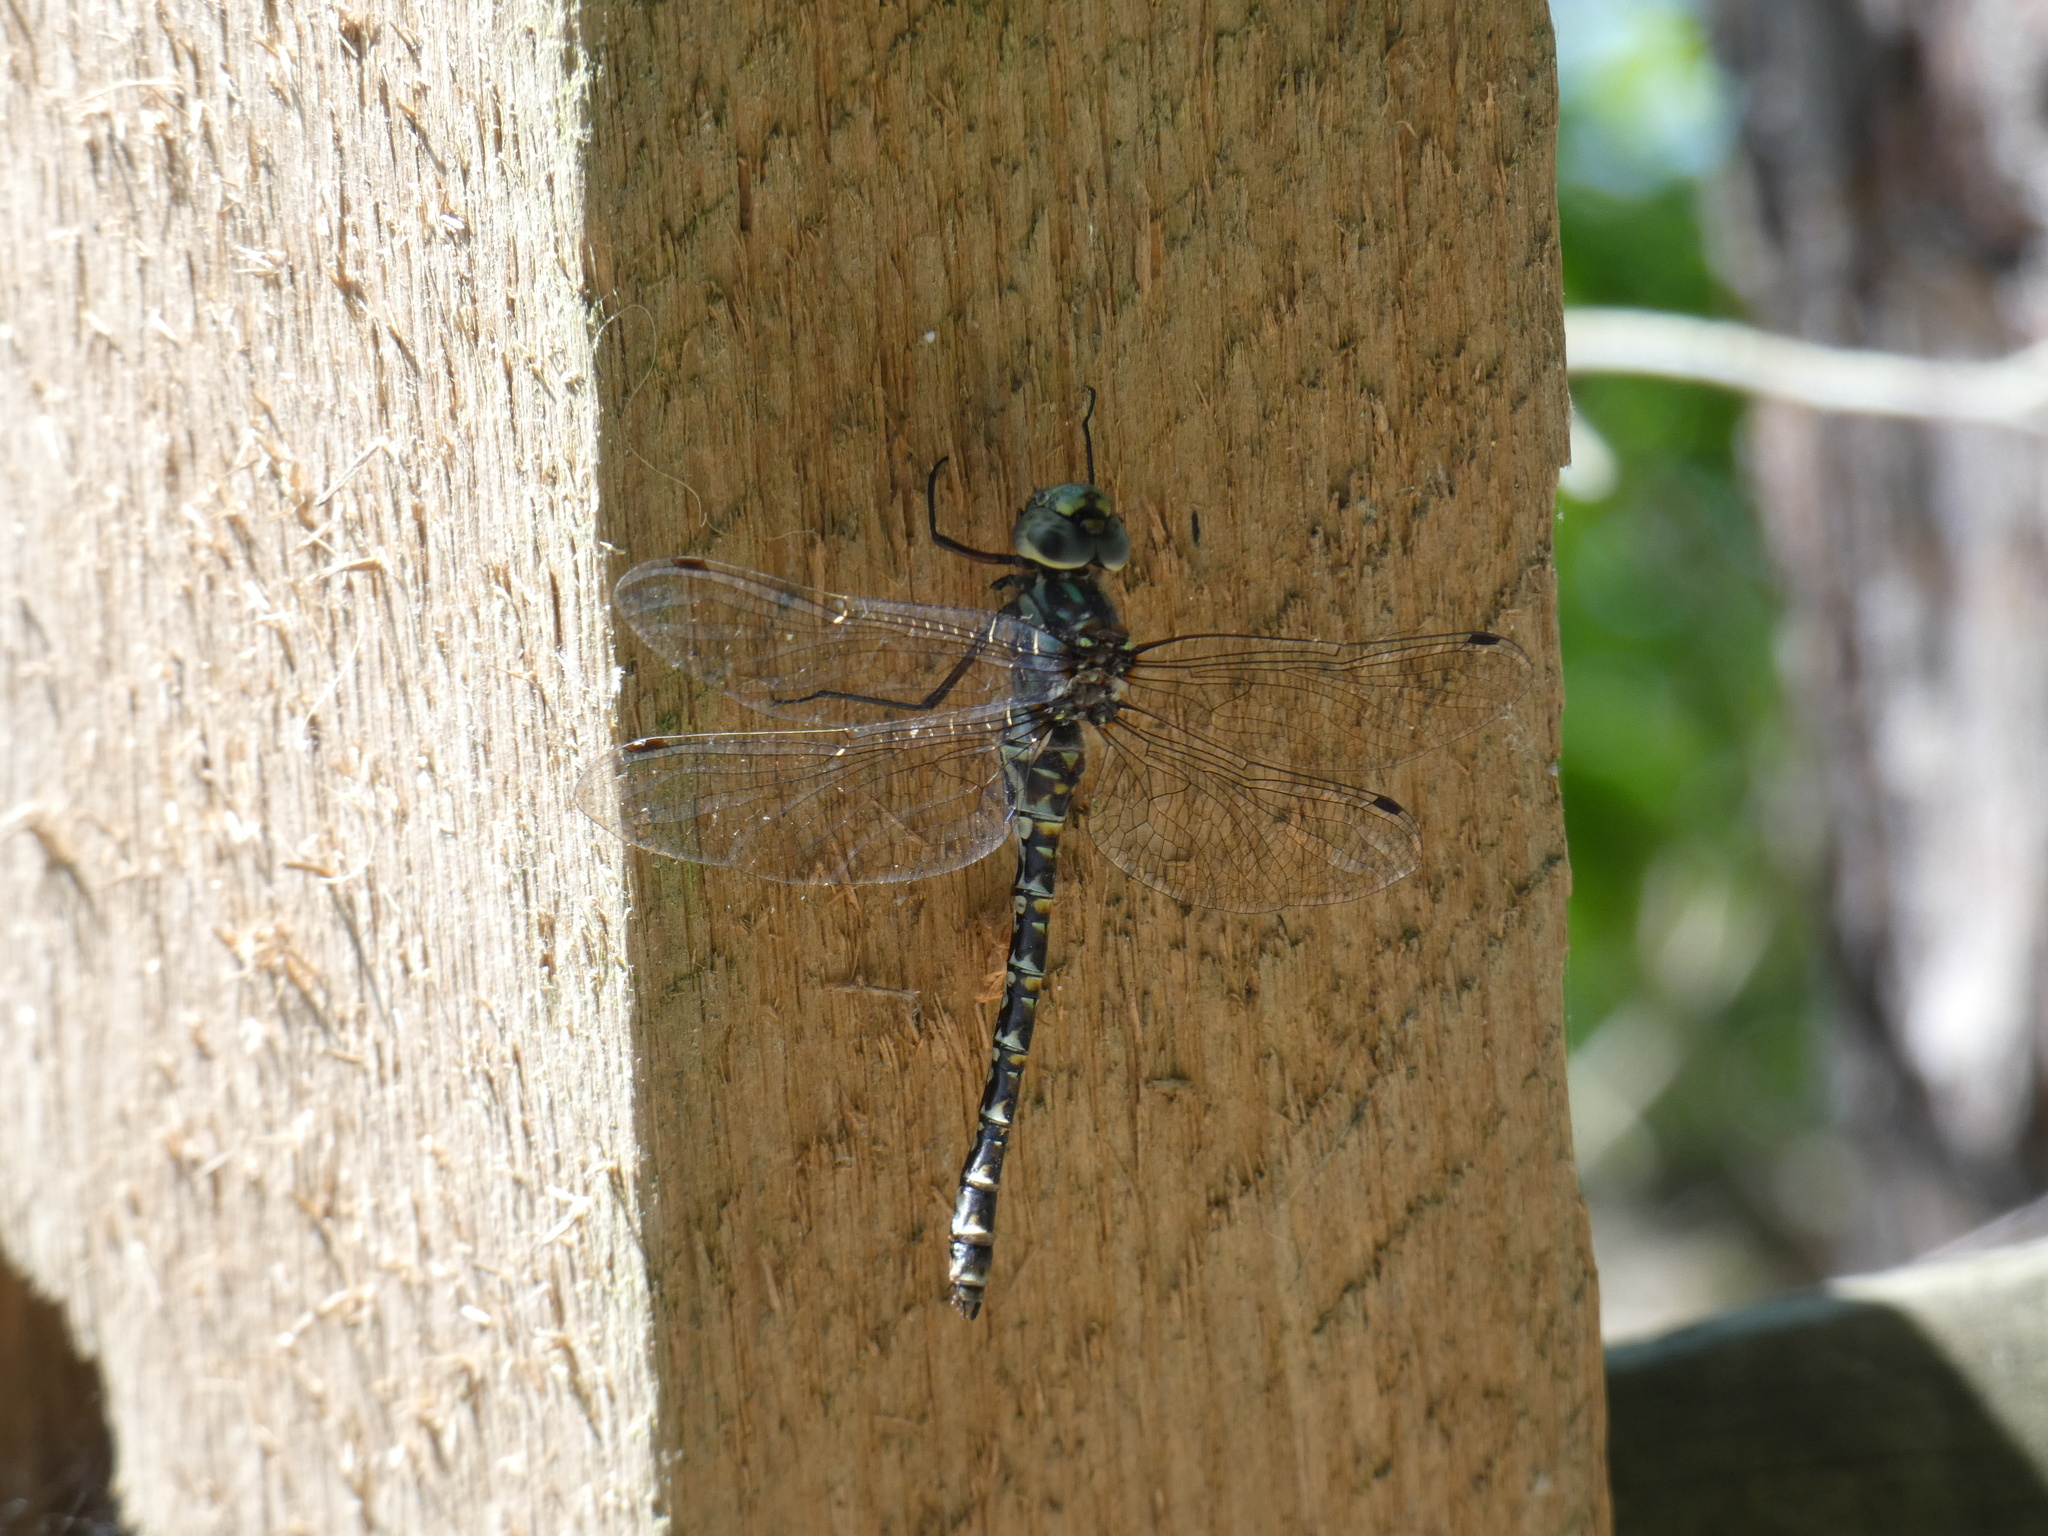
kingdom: Animalia
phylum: Arthropoda
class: Insecta
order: Odonata
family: Aeshnidae
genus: Gomphaeschna
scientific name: Gomphaeschna furcillata
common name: Harlequin darner
